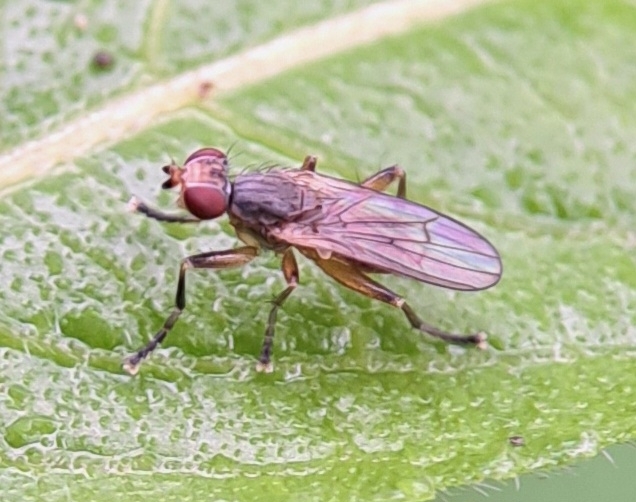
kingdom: Animalia
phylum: Arthropoda
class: Insecta
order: Diptera
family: Sciomyzidae
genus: Pherbellia
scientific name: Pherbellia dubia
